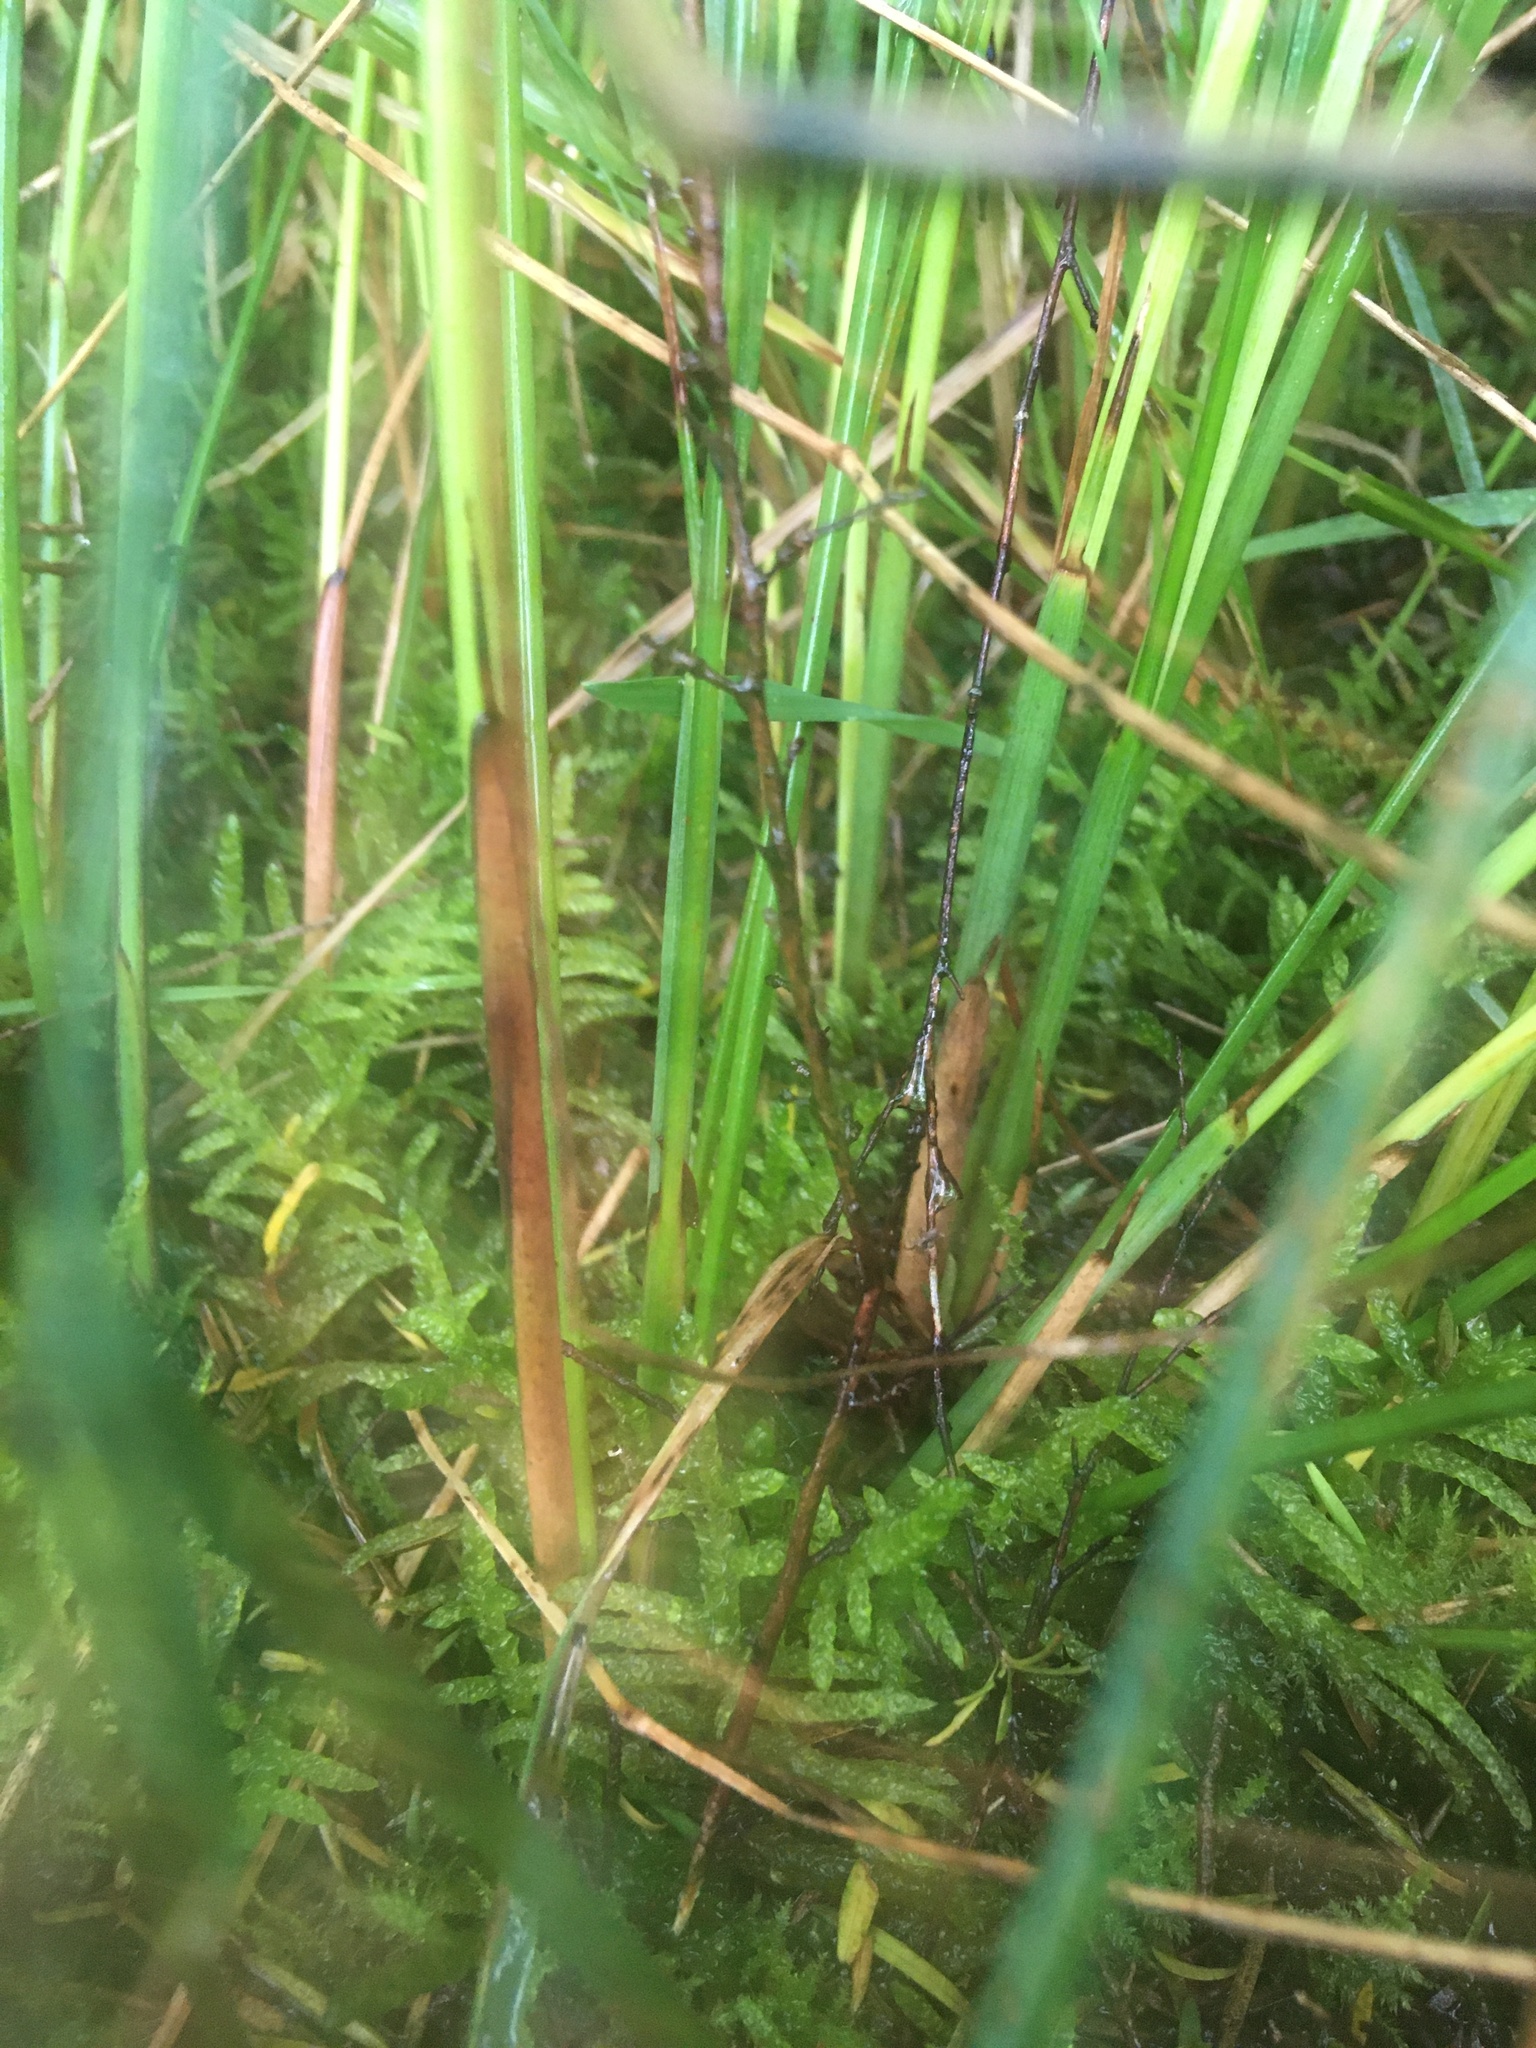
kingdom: Plantae
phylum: Bryophyta
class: Bryopsida
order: Hypnales
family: Brachytheciaceae
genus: Pseudoscleropodium
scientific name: Pseudoscleropodium purum
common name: Neat feather-moss
